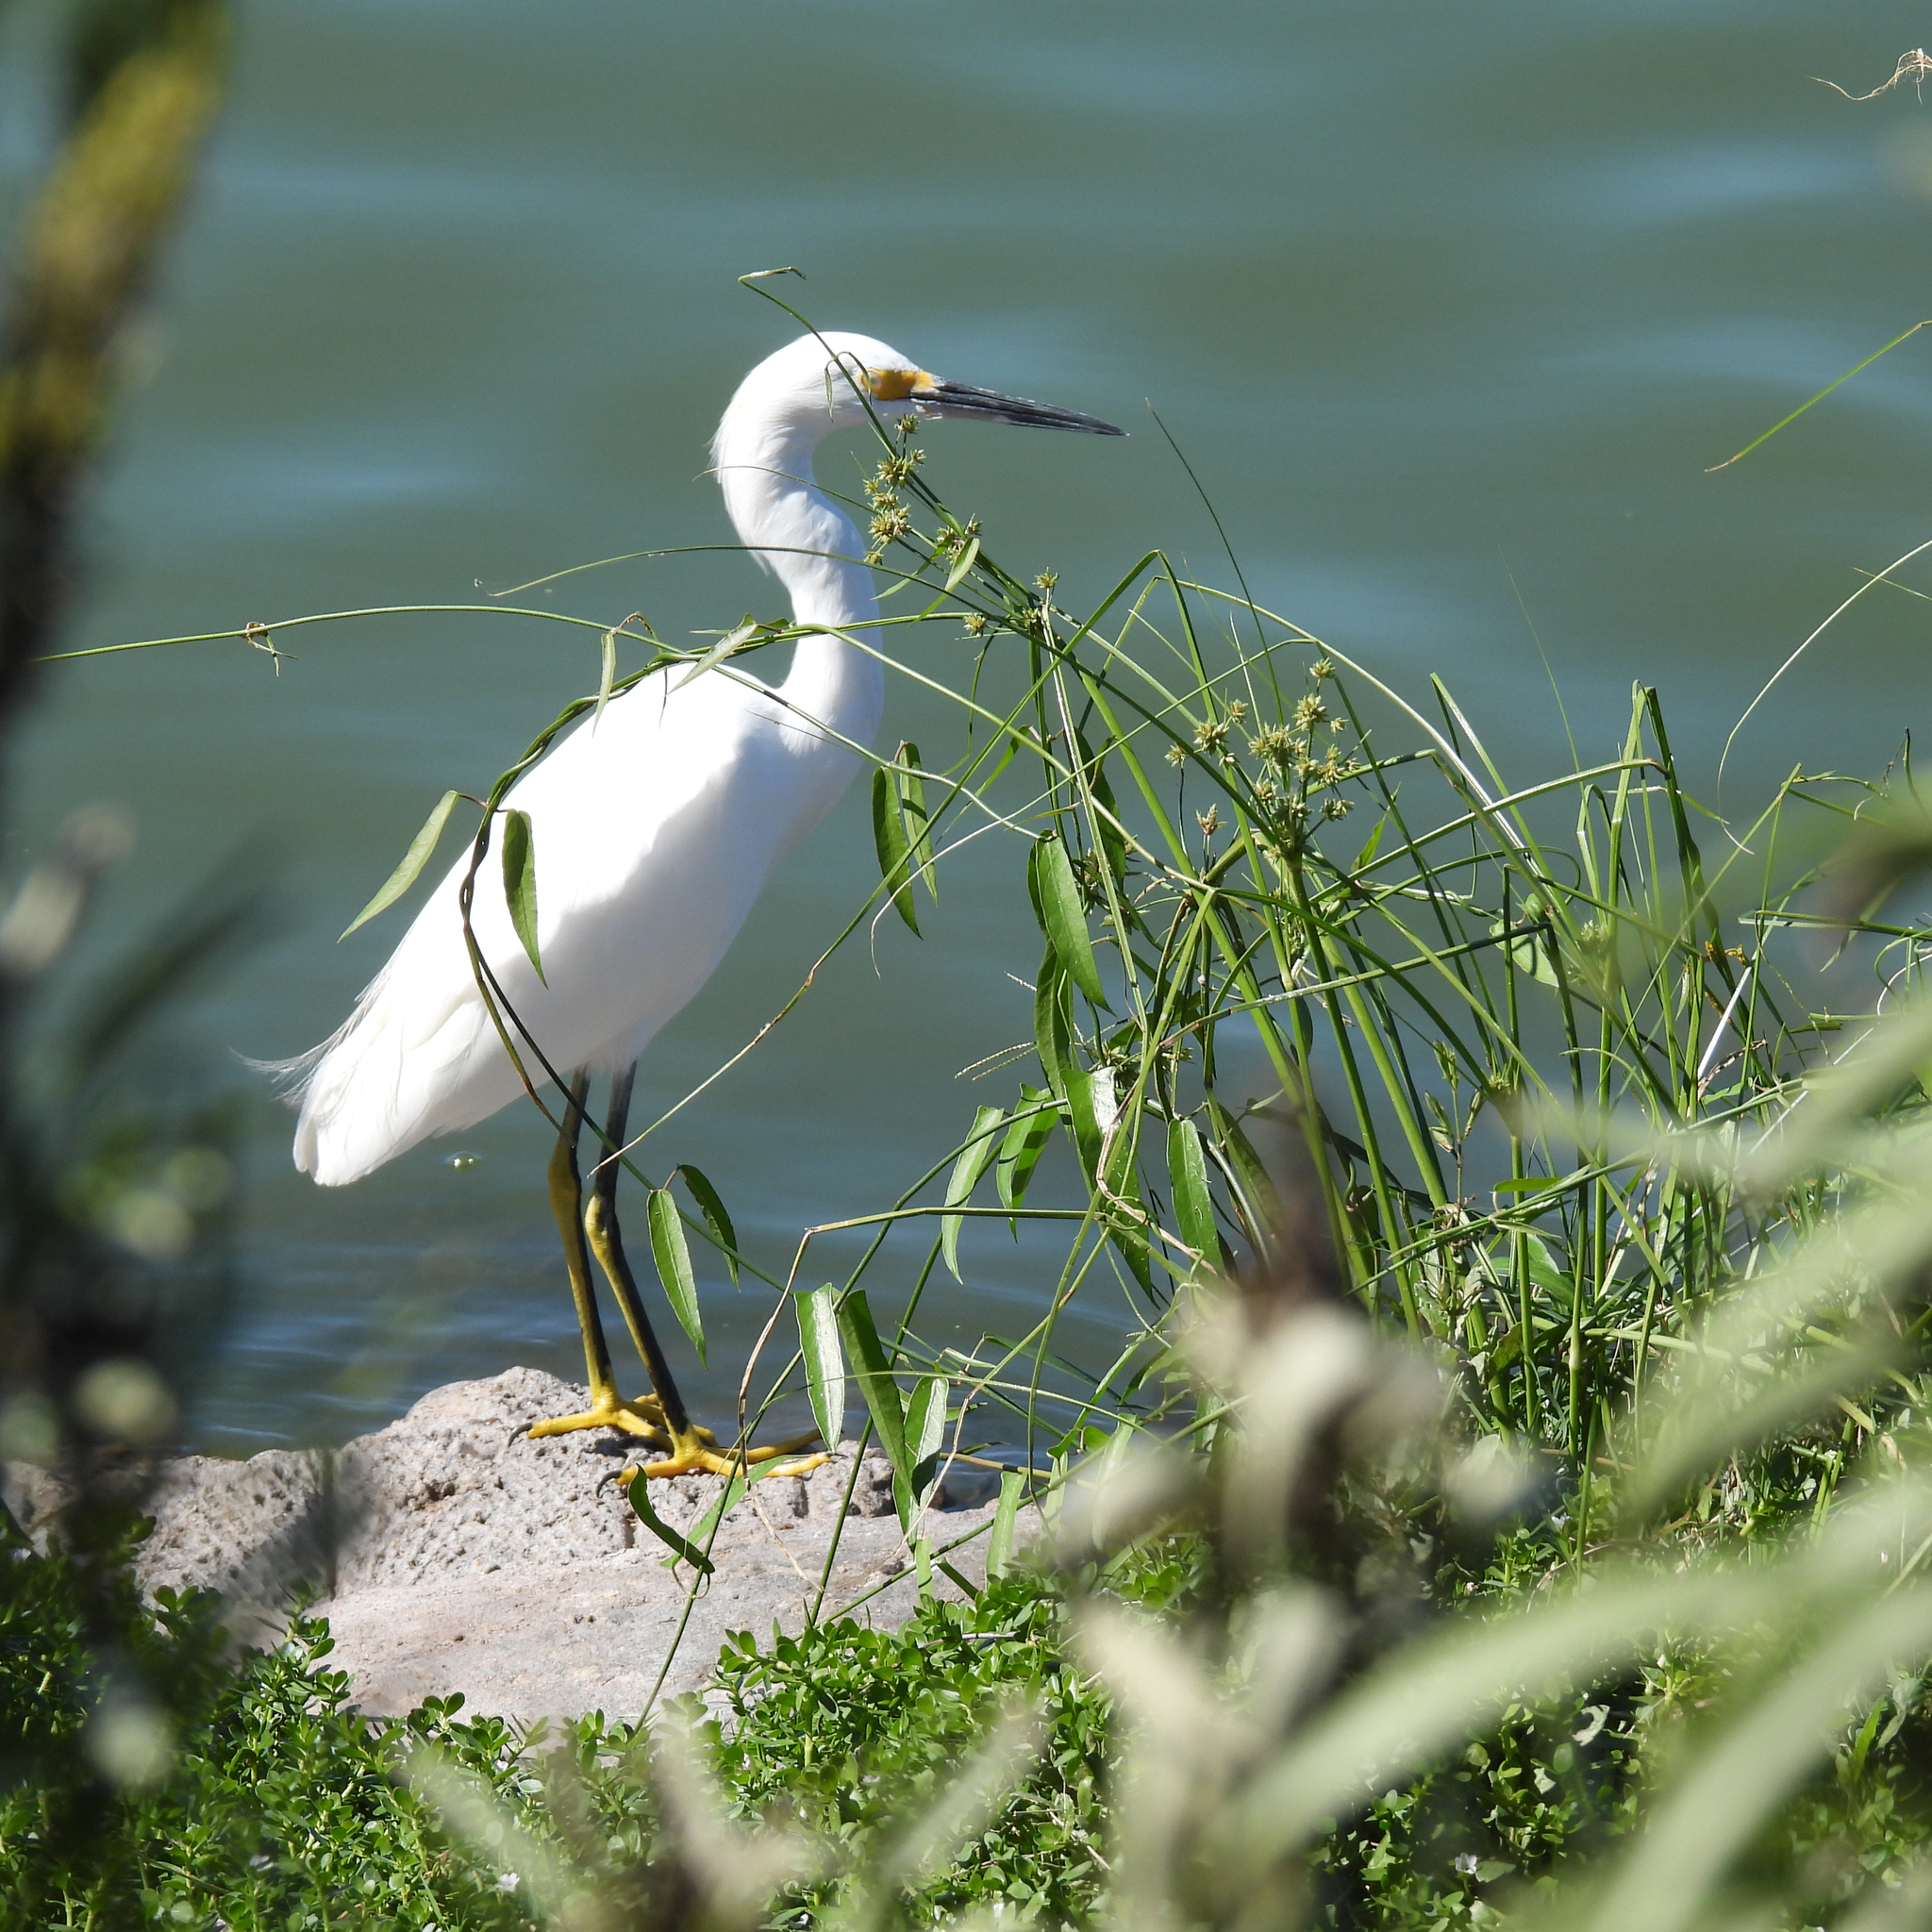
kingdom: Animalia
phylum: Chordata
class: Aves
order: Pelecaniformes
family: Ardeidae
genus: Egretta
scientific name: Egretta thula
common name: Snowy egret
